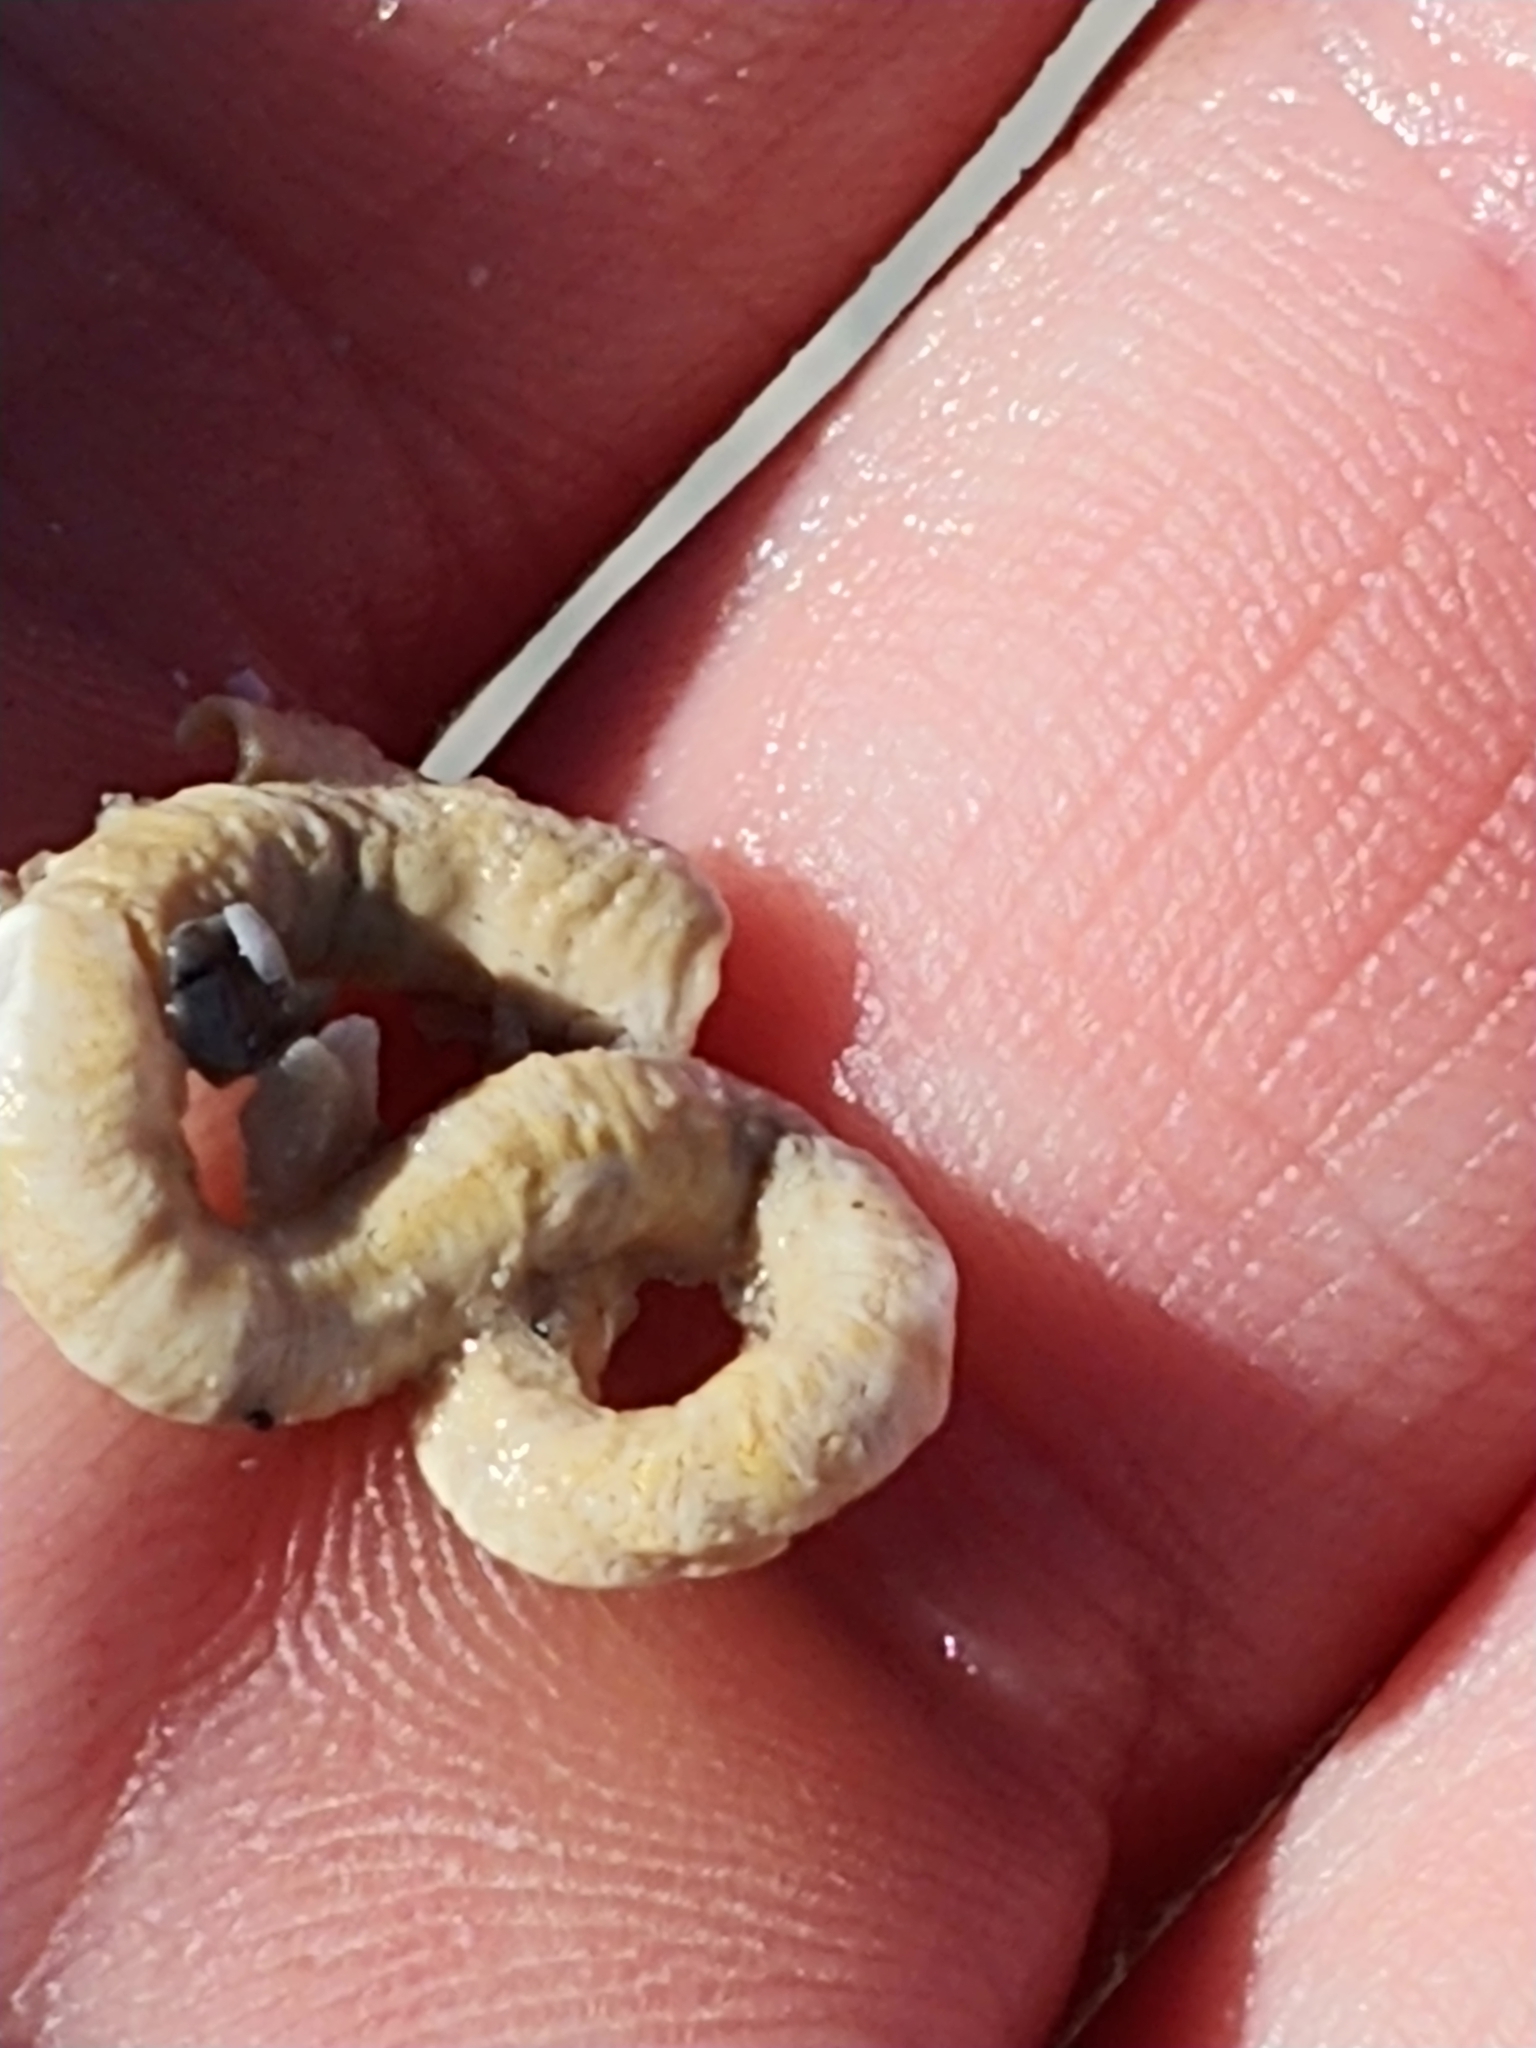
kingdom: Animalia
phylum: Mollusca
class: Gastropoda
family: Turritellidae
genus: Vermicularia
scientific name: Vermicularia lumbricalis
